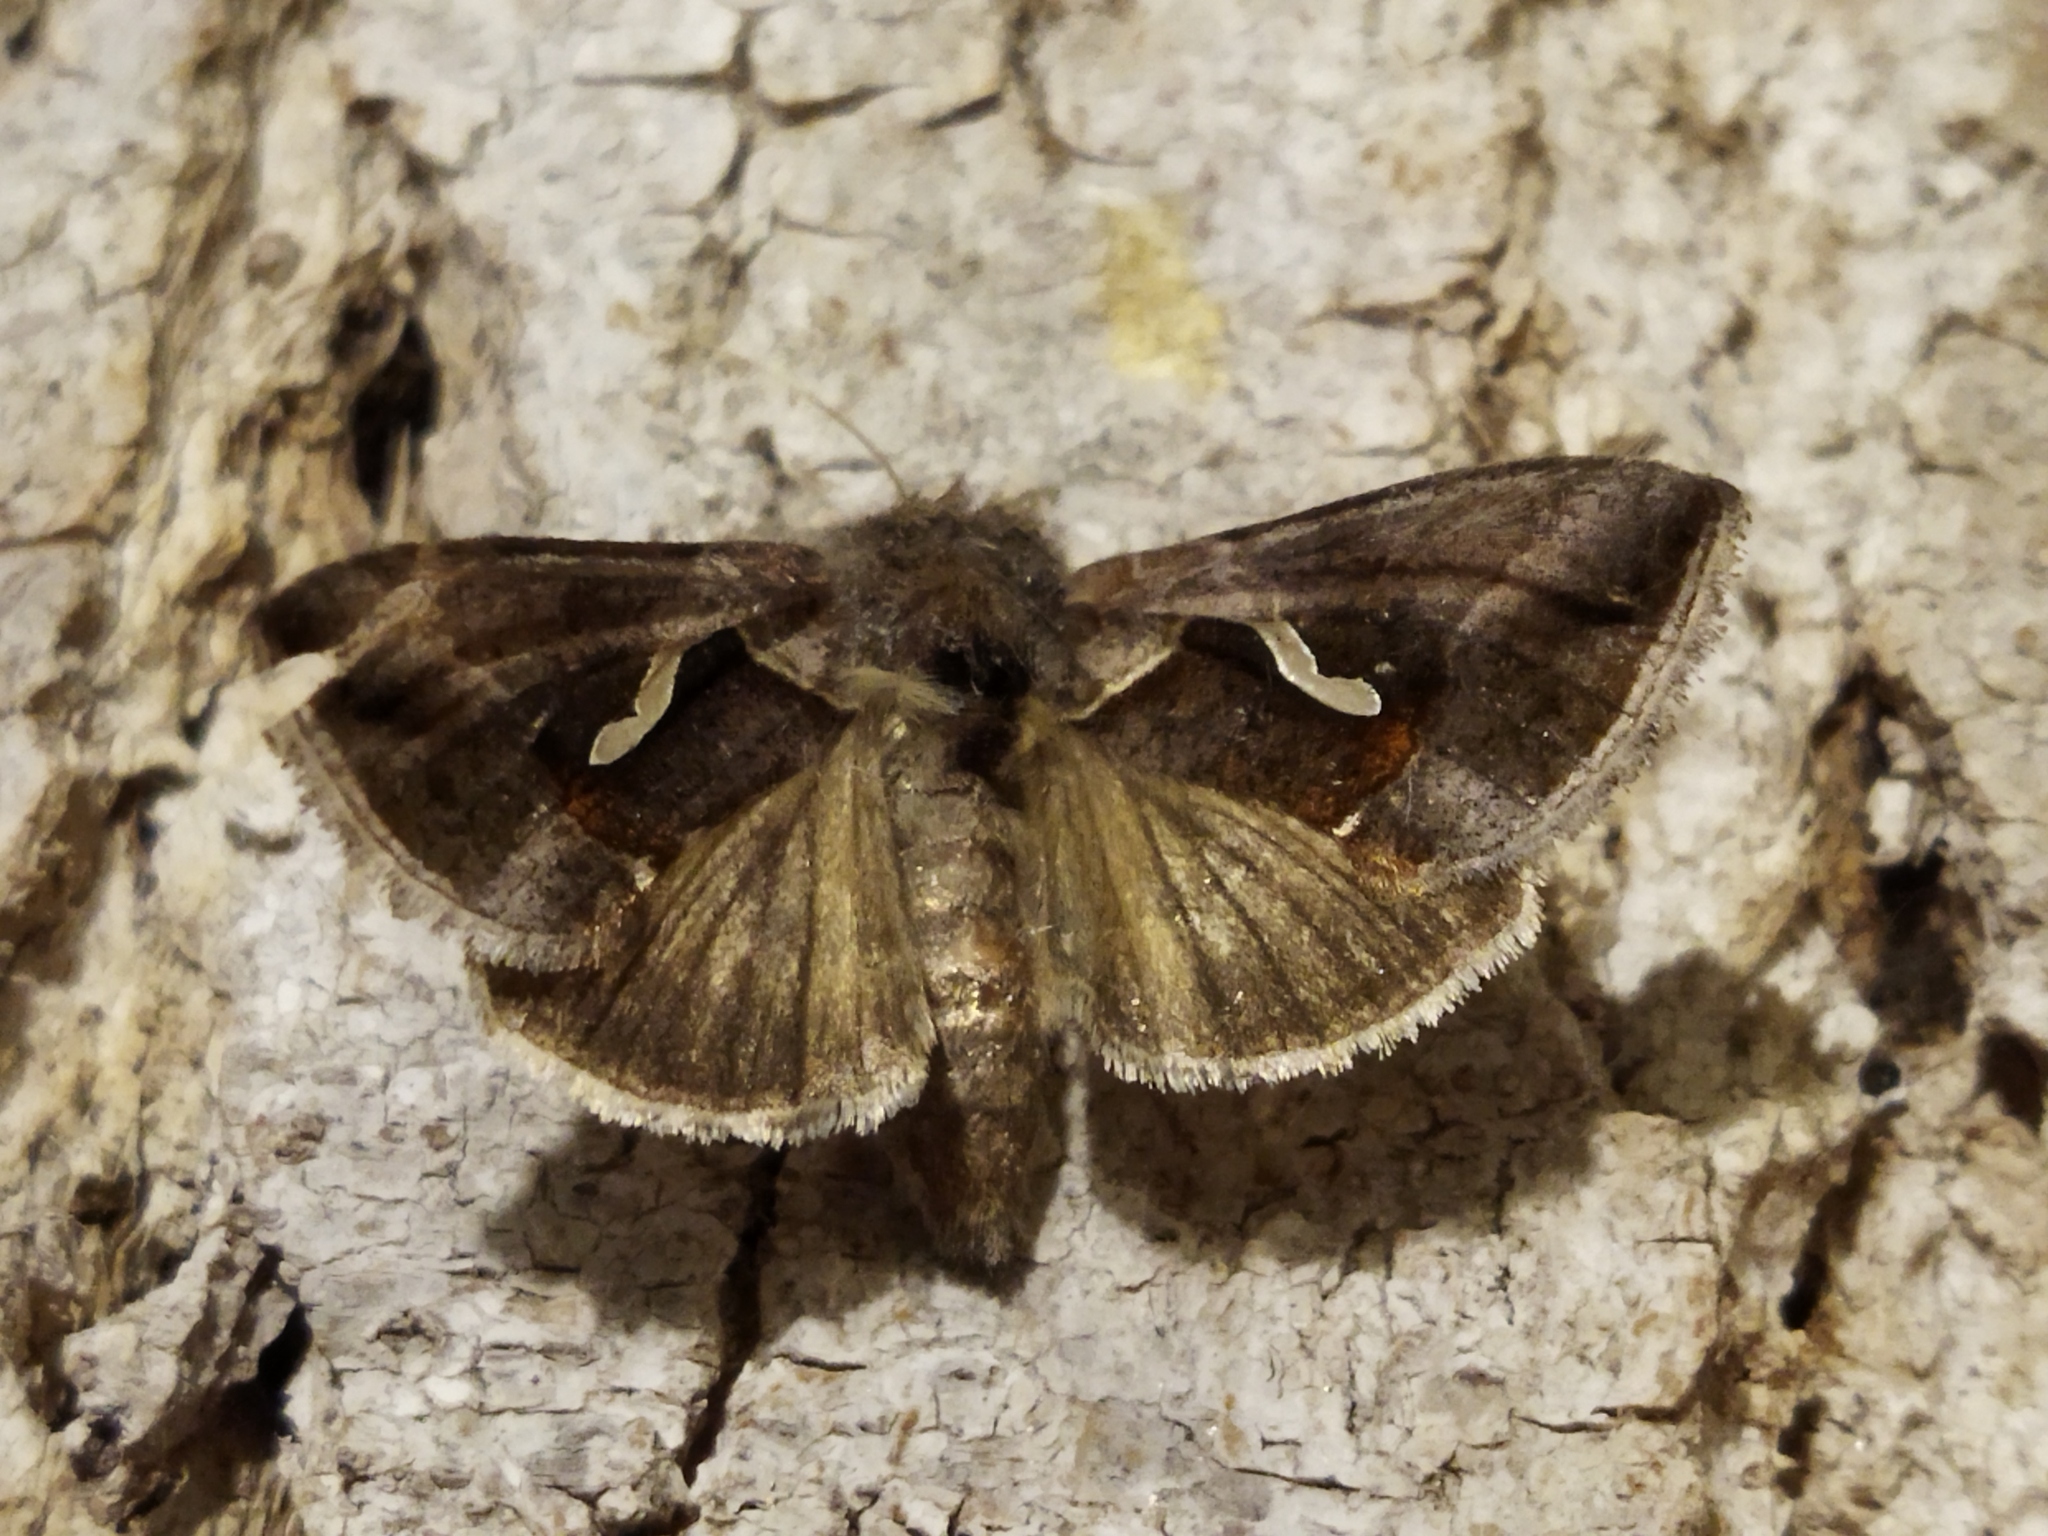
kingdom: Animalia
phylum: Arthropoda
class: Insecta
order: Lepidoptera
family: Noctuidae
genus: Macdunnoughia
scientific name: Macdunnoughia confusa
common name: Dewick's plusia
